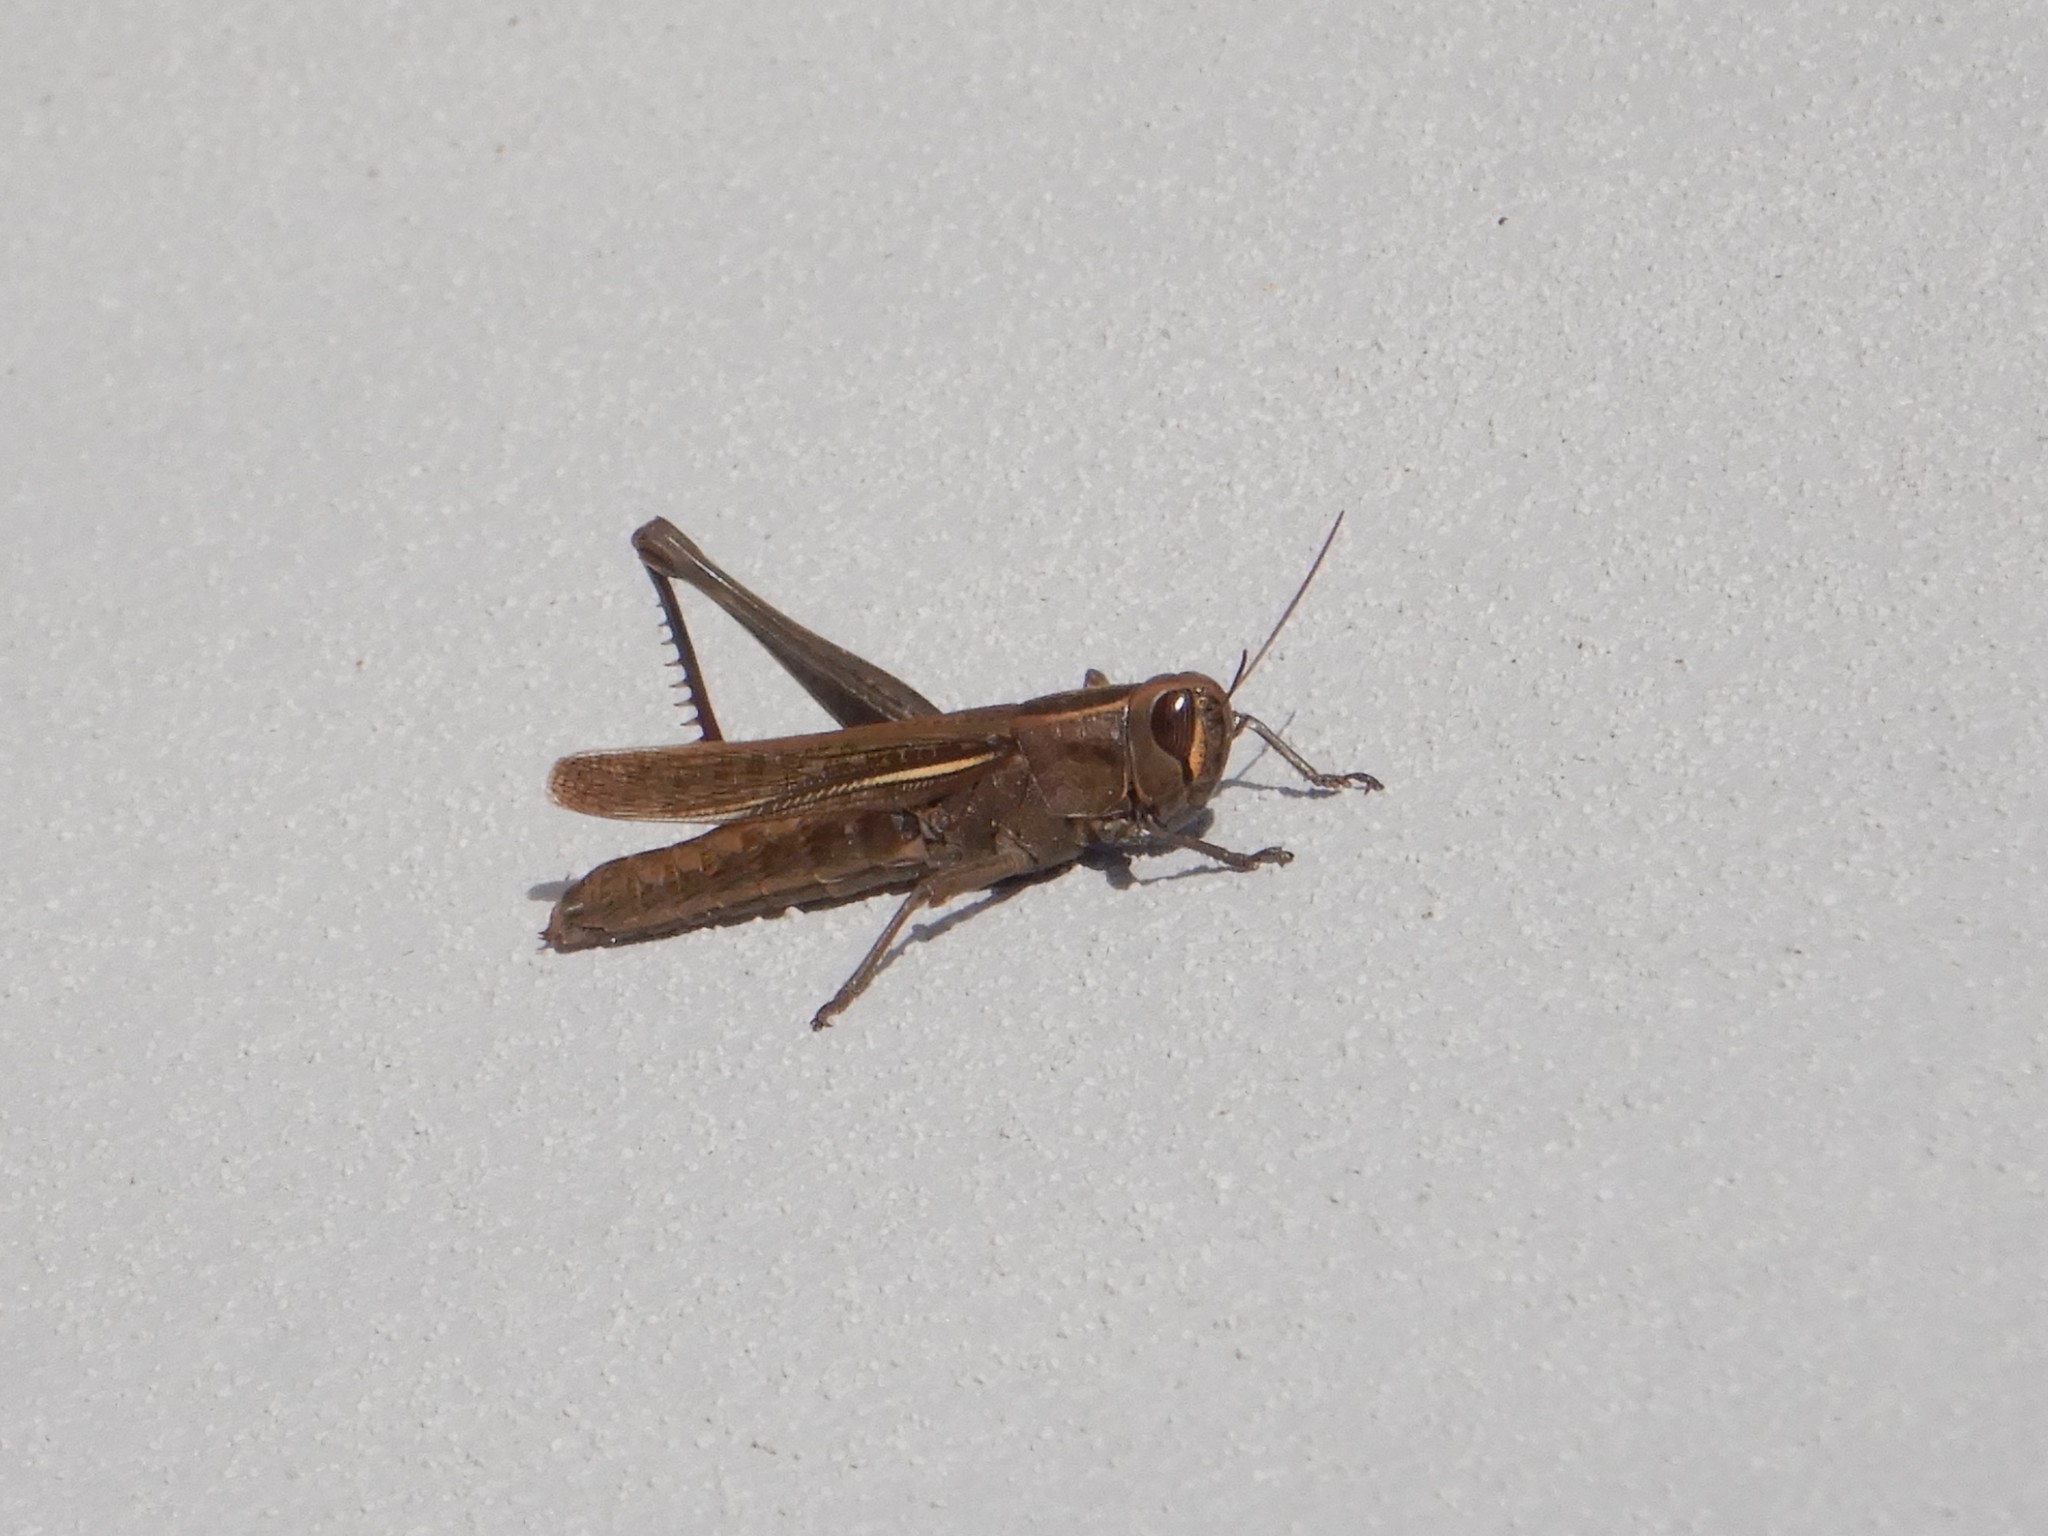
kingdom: Animalia
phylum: Arthropoda
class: Insecta
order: Orthoptera
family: Acrididae
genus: Eyprepocnemis
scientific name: Eyprepocnemis plorans
